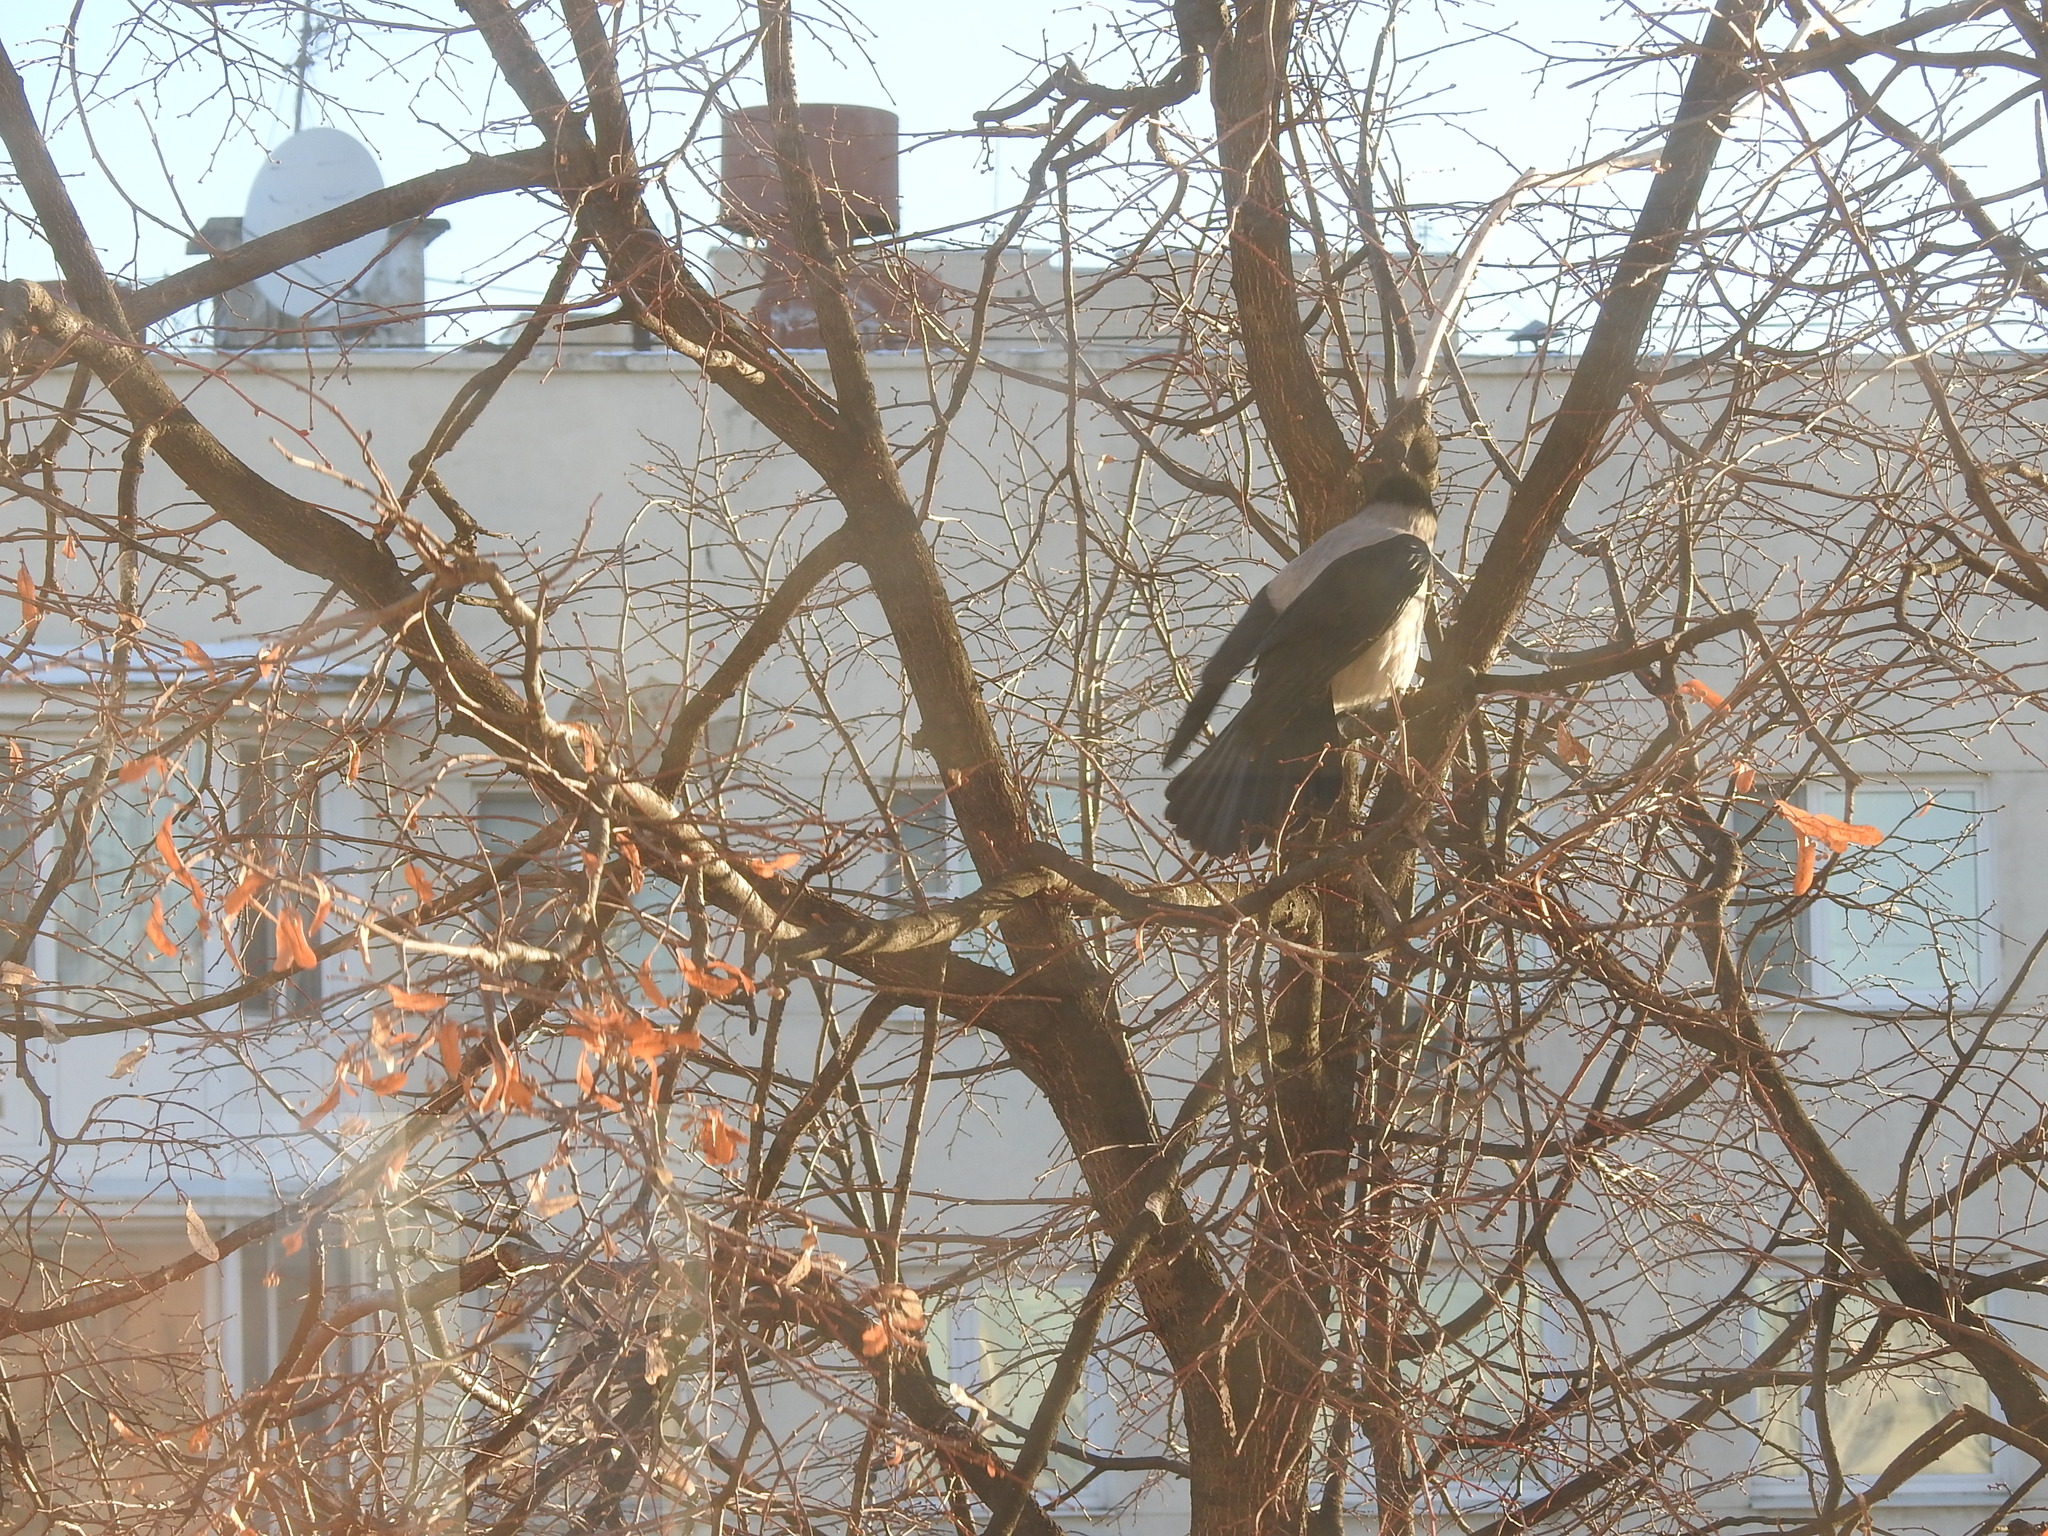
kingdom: Animalia
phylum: Chordata
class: Aves
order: Passeriformes
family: Corvidae
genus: Corvus
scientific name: Corvus cornix
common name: Hooded crow
